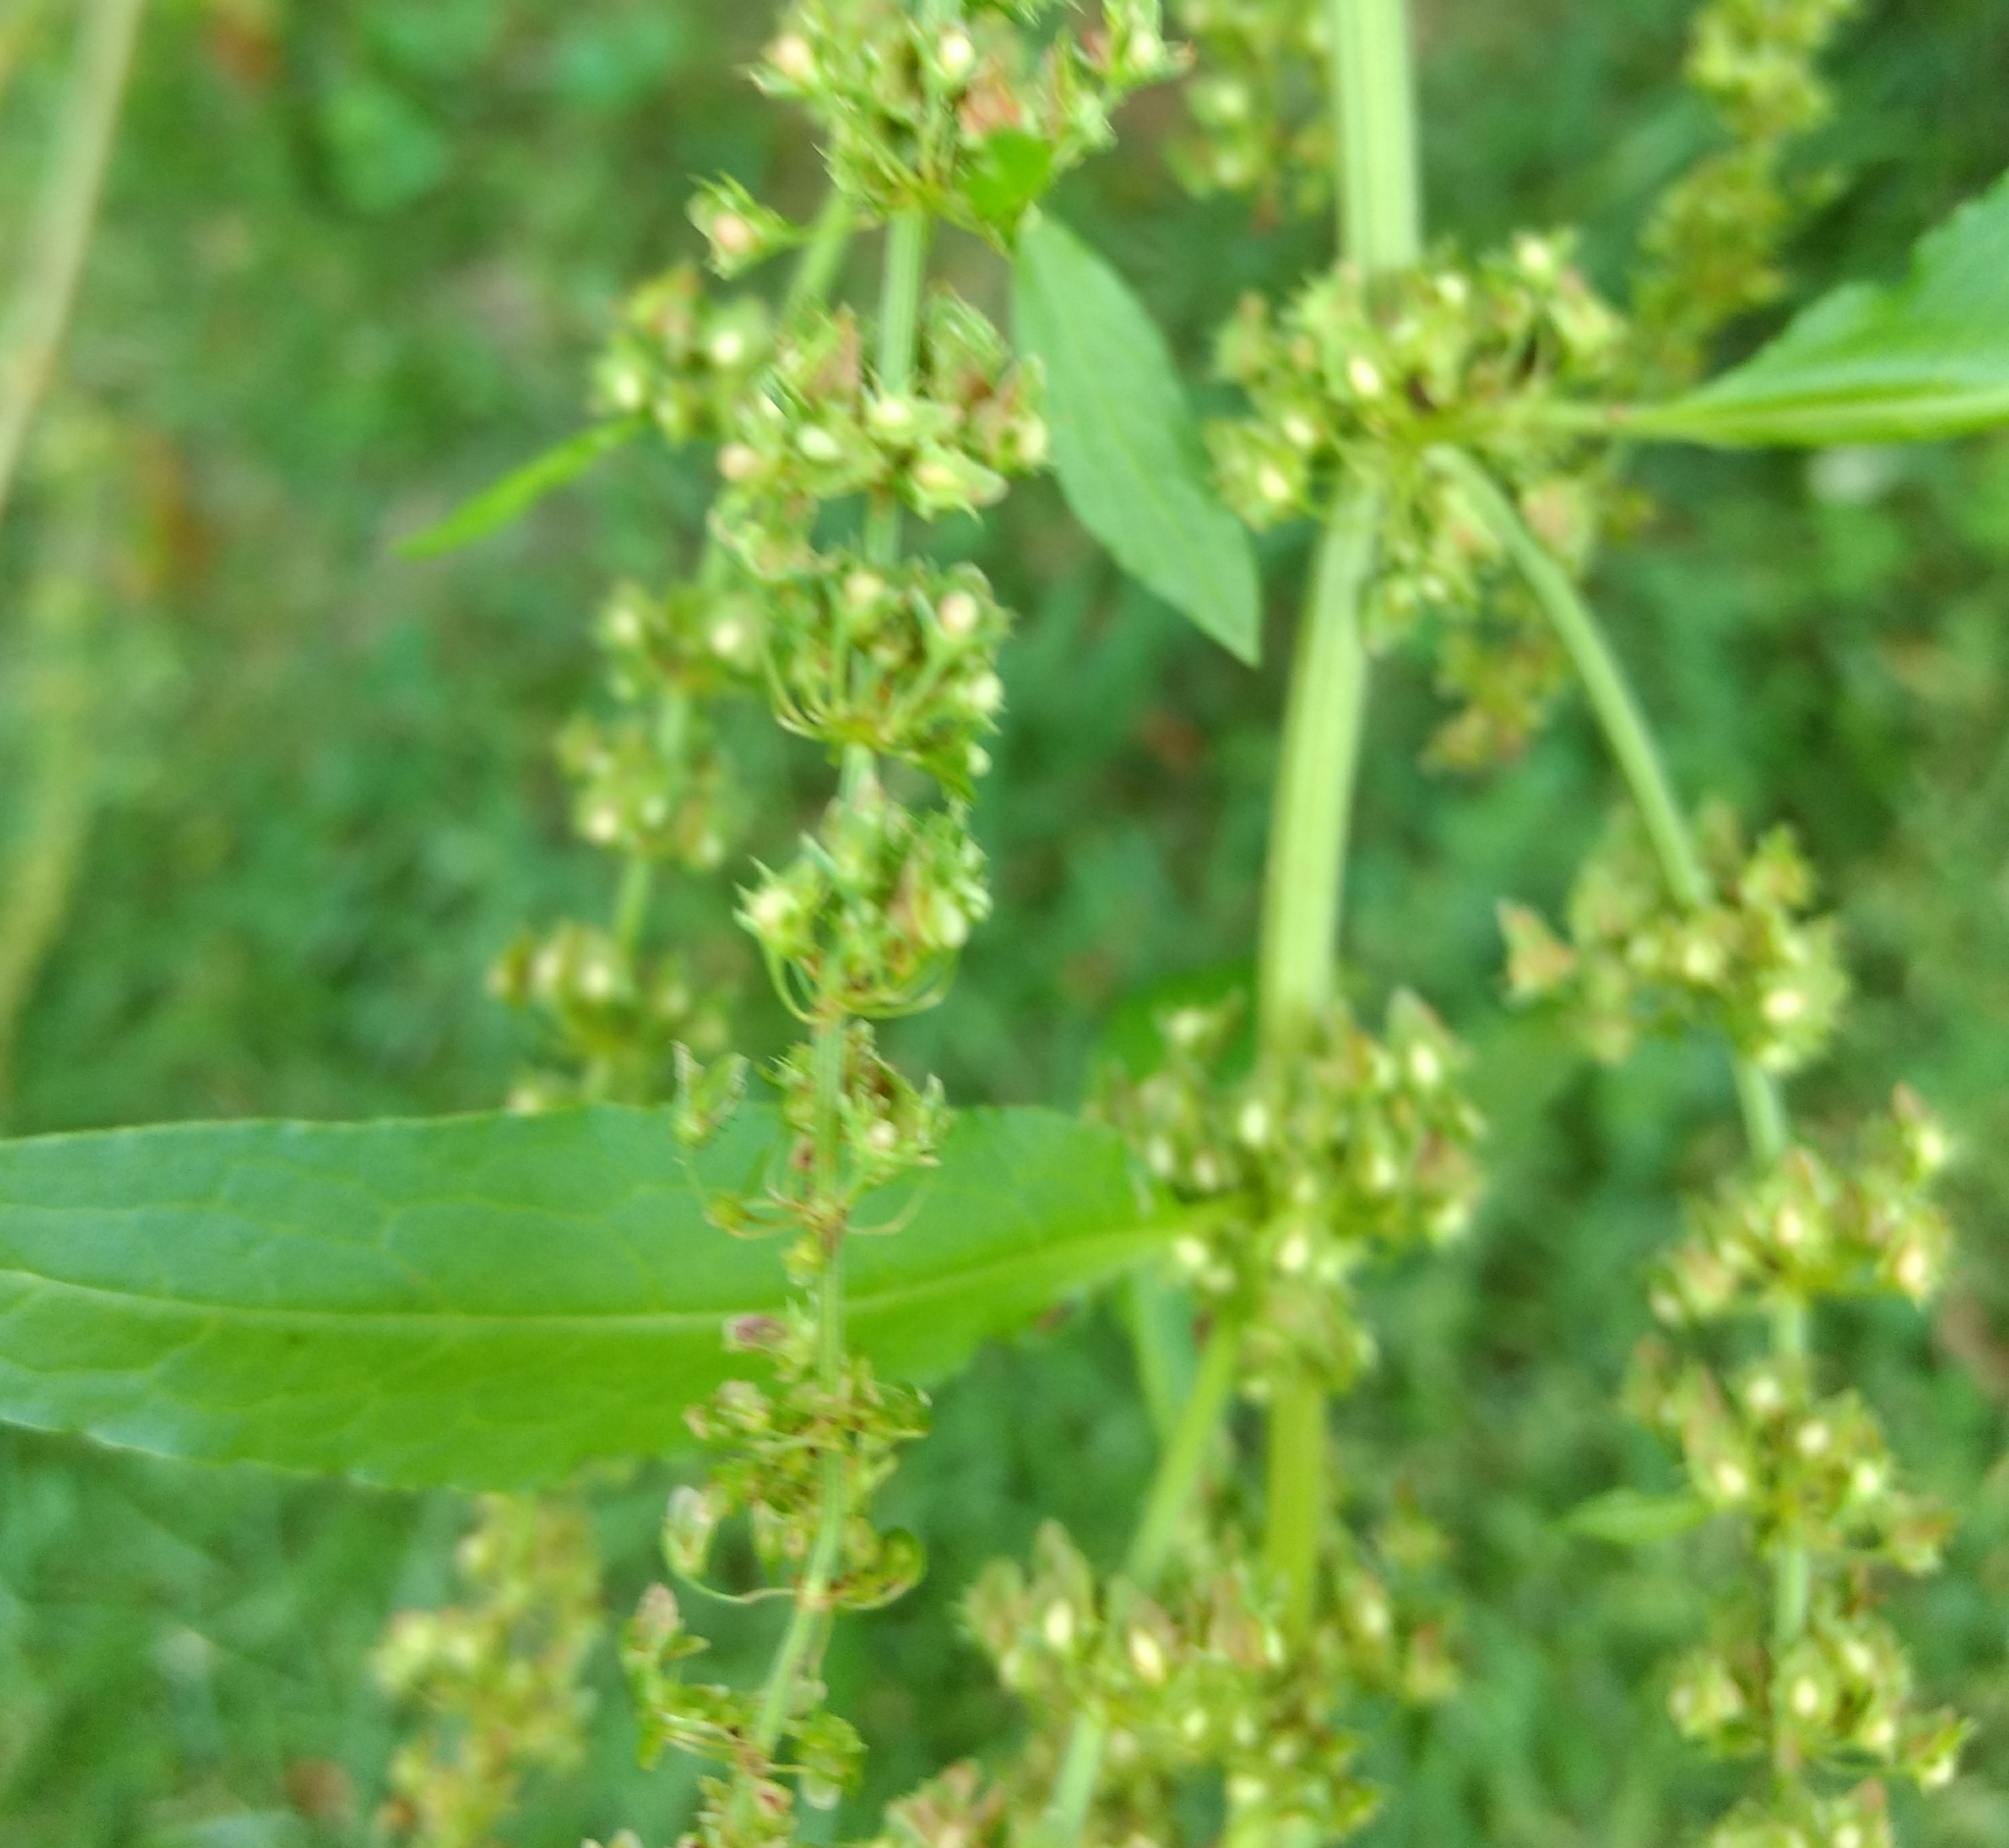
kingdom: Plantae
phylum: Tracheophyta
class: Magnoliopsida
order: Caryophyllales
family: Polygonaceae
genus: Rumex
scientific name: Rumex obtusifolius
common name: Bitter dock
